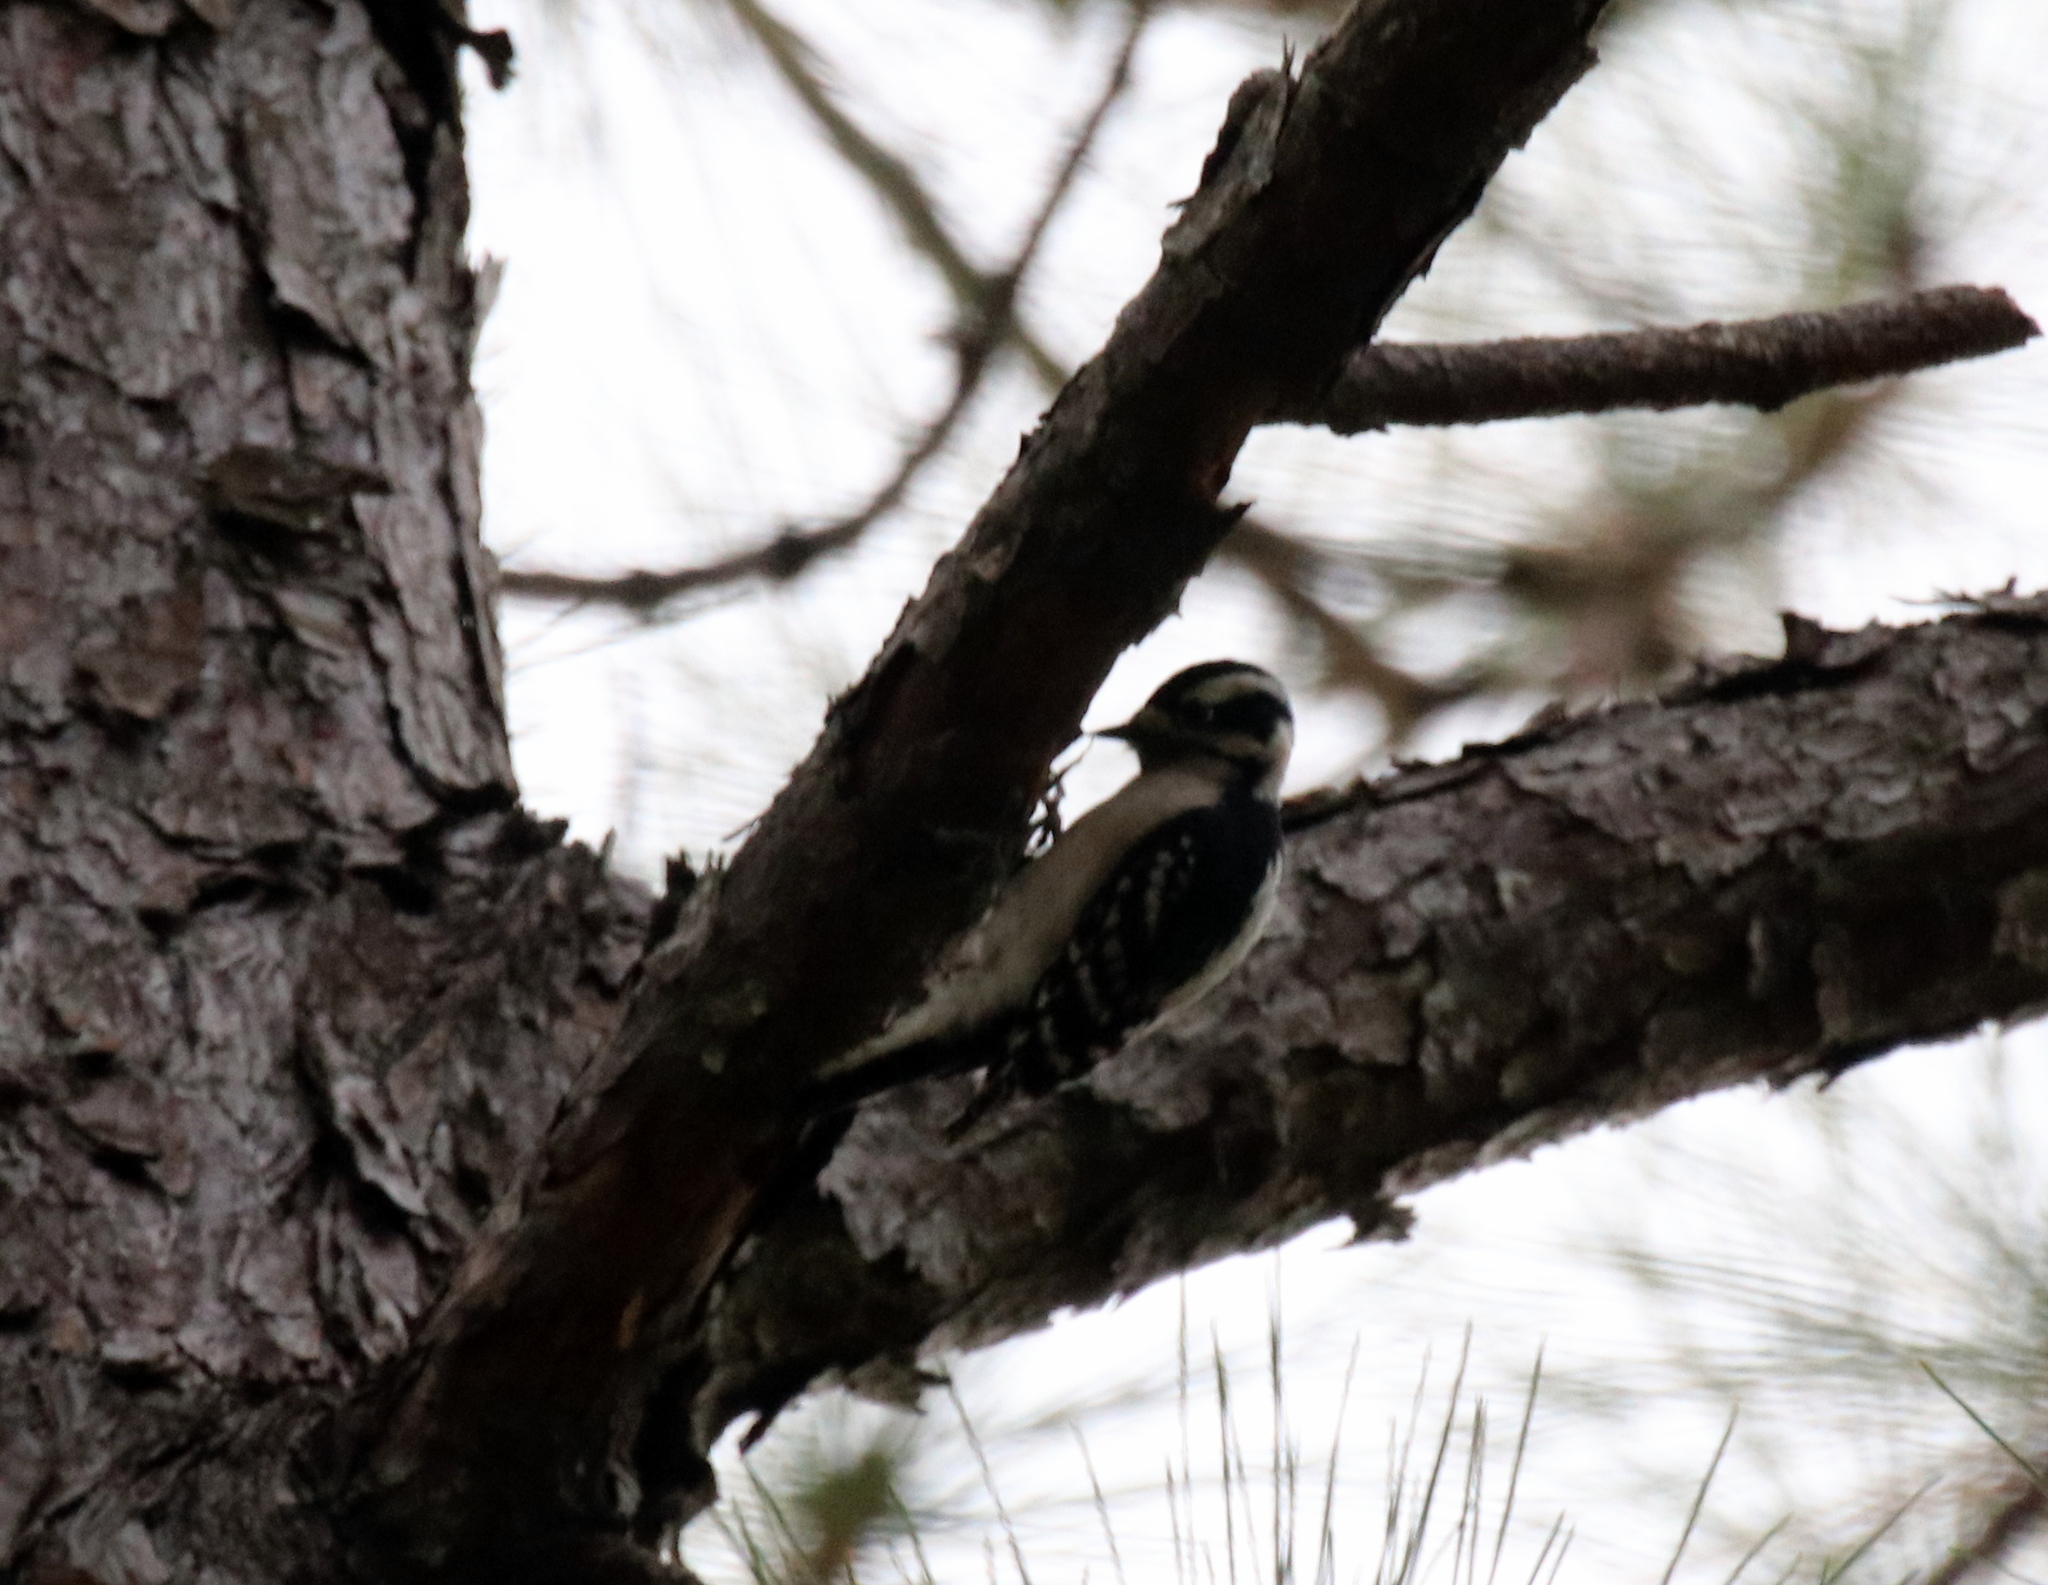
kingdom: Animalia
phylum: Chordata
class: Aves
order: Piciformes
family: Picidae
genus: Dryobates
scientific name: Dryobates pubescens
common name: Downy woodpecker
